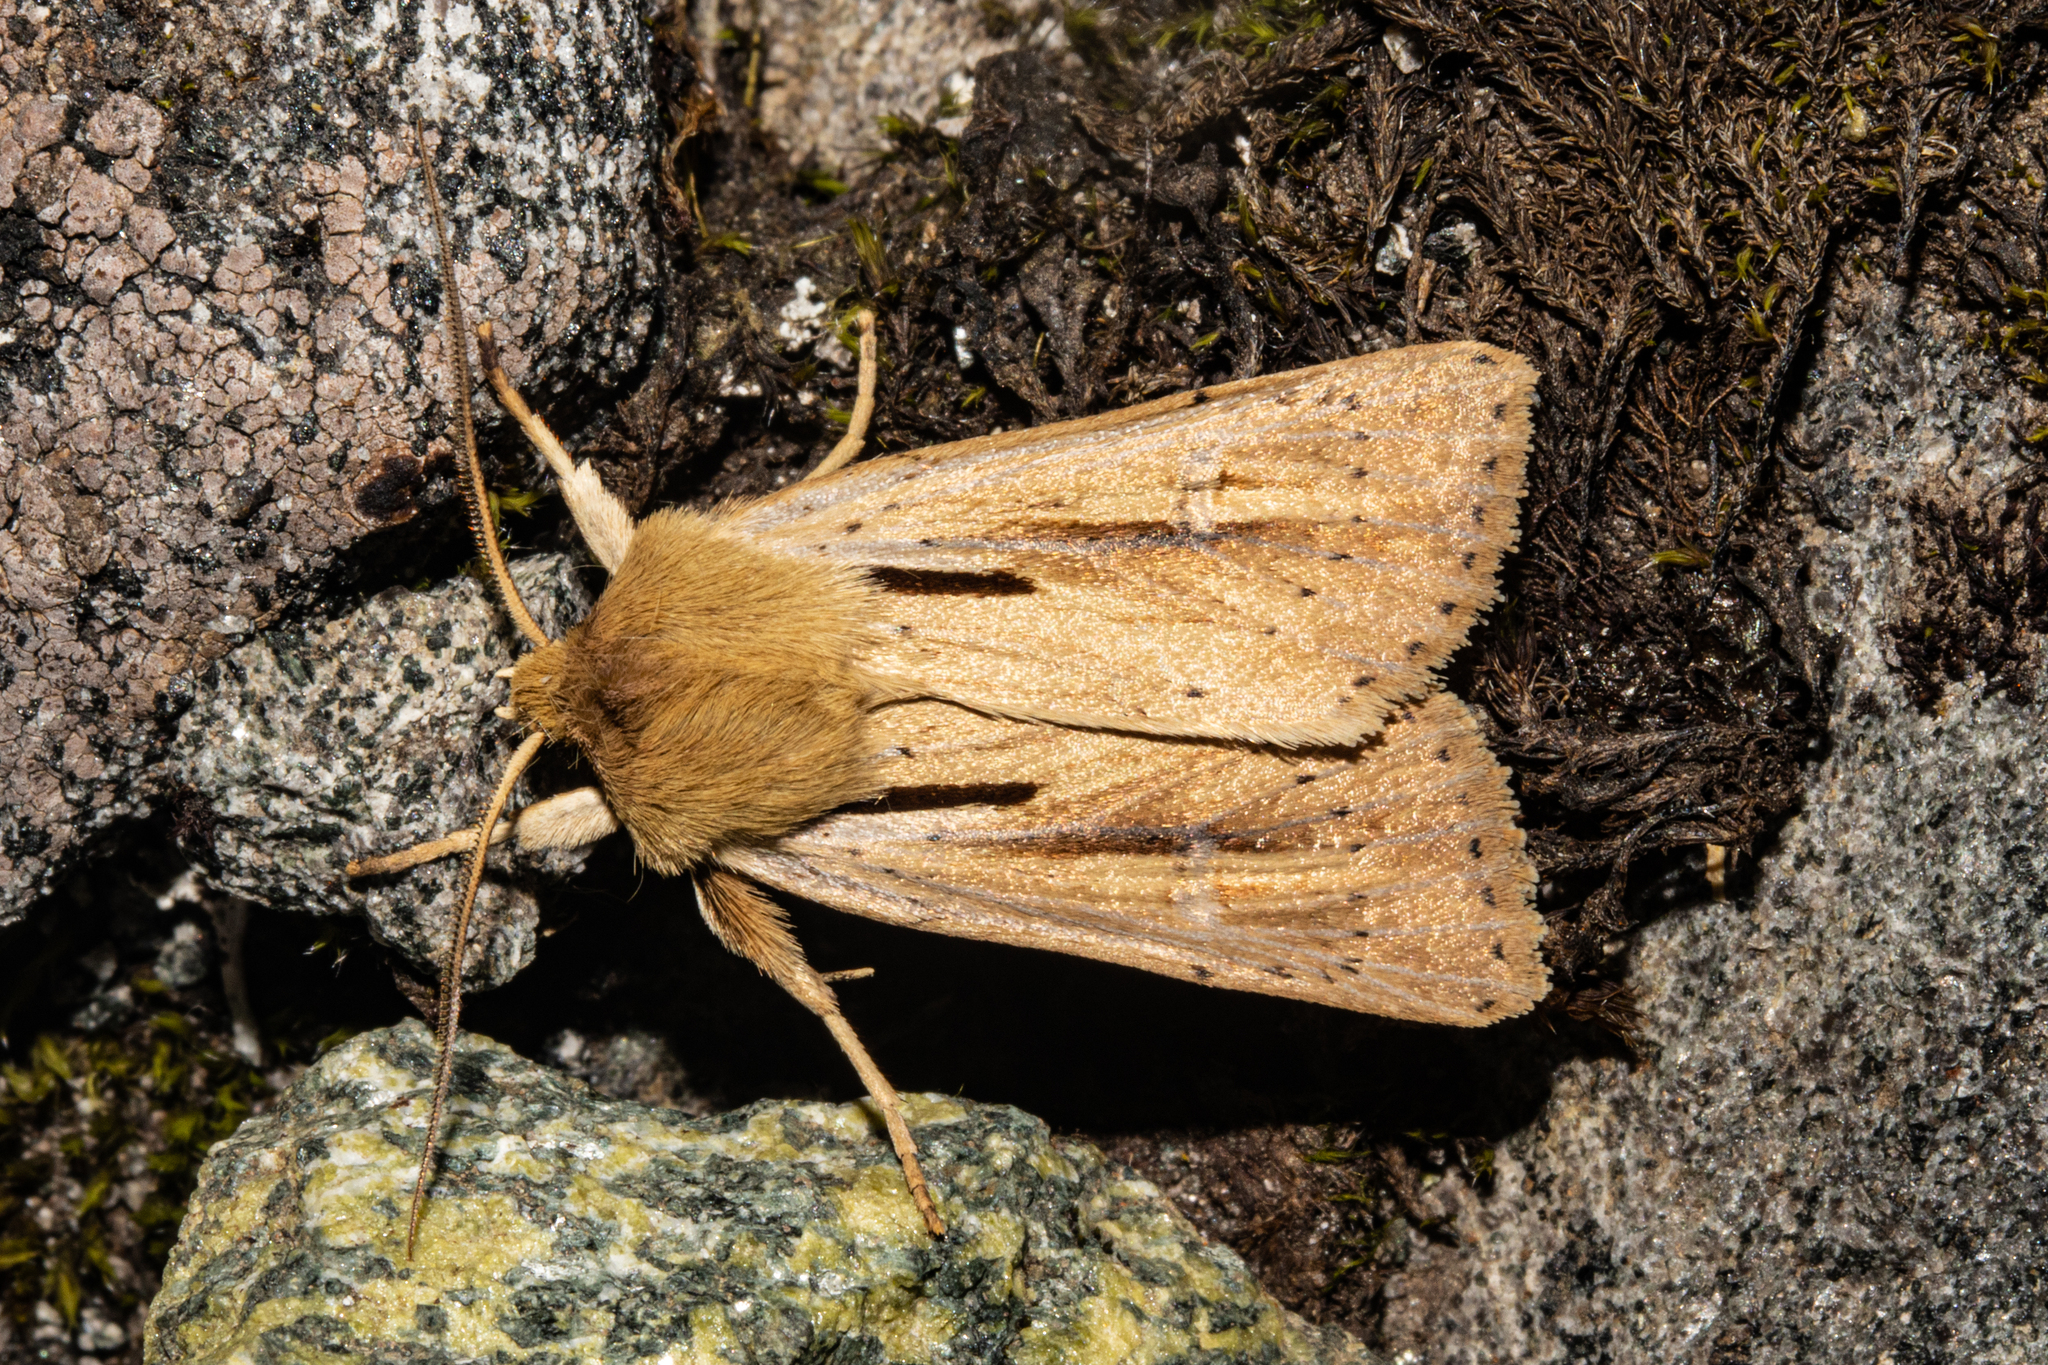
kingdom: Animalia
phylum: Arthropoda
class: Insecta
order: Lepidoptera
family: Noctuidae
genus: Ichneutica
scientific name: Ichneutica propria
